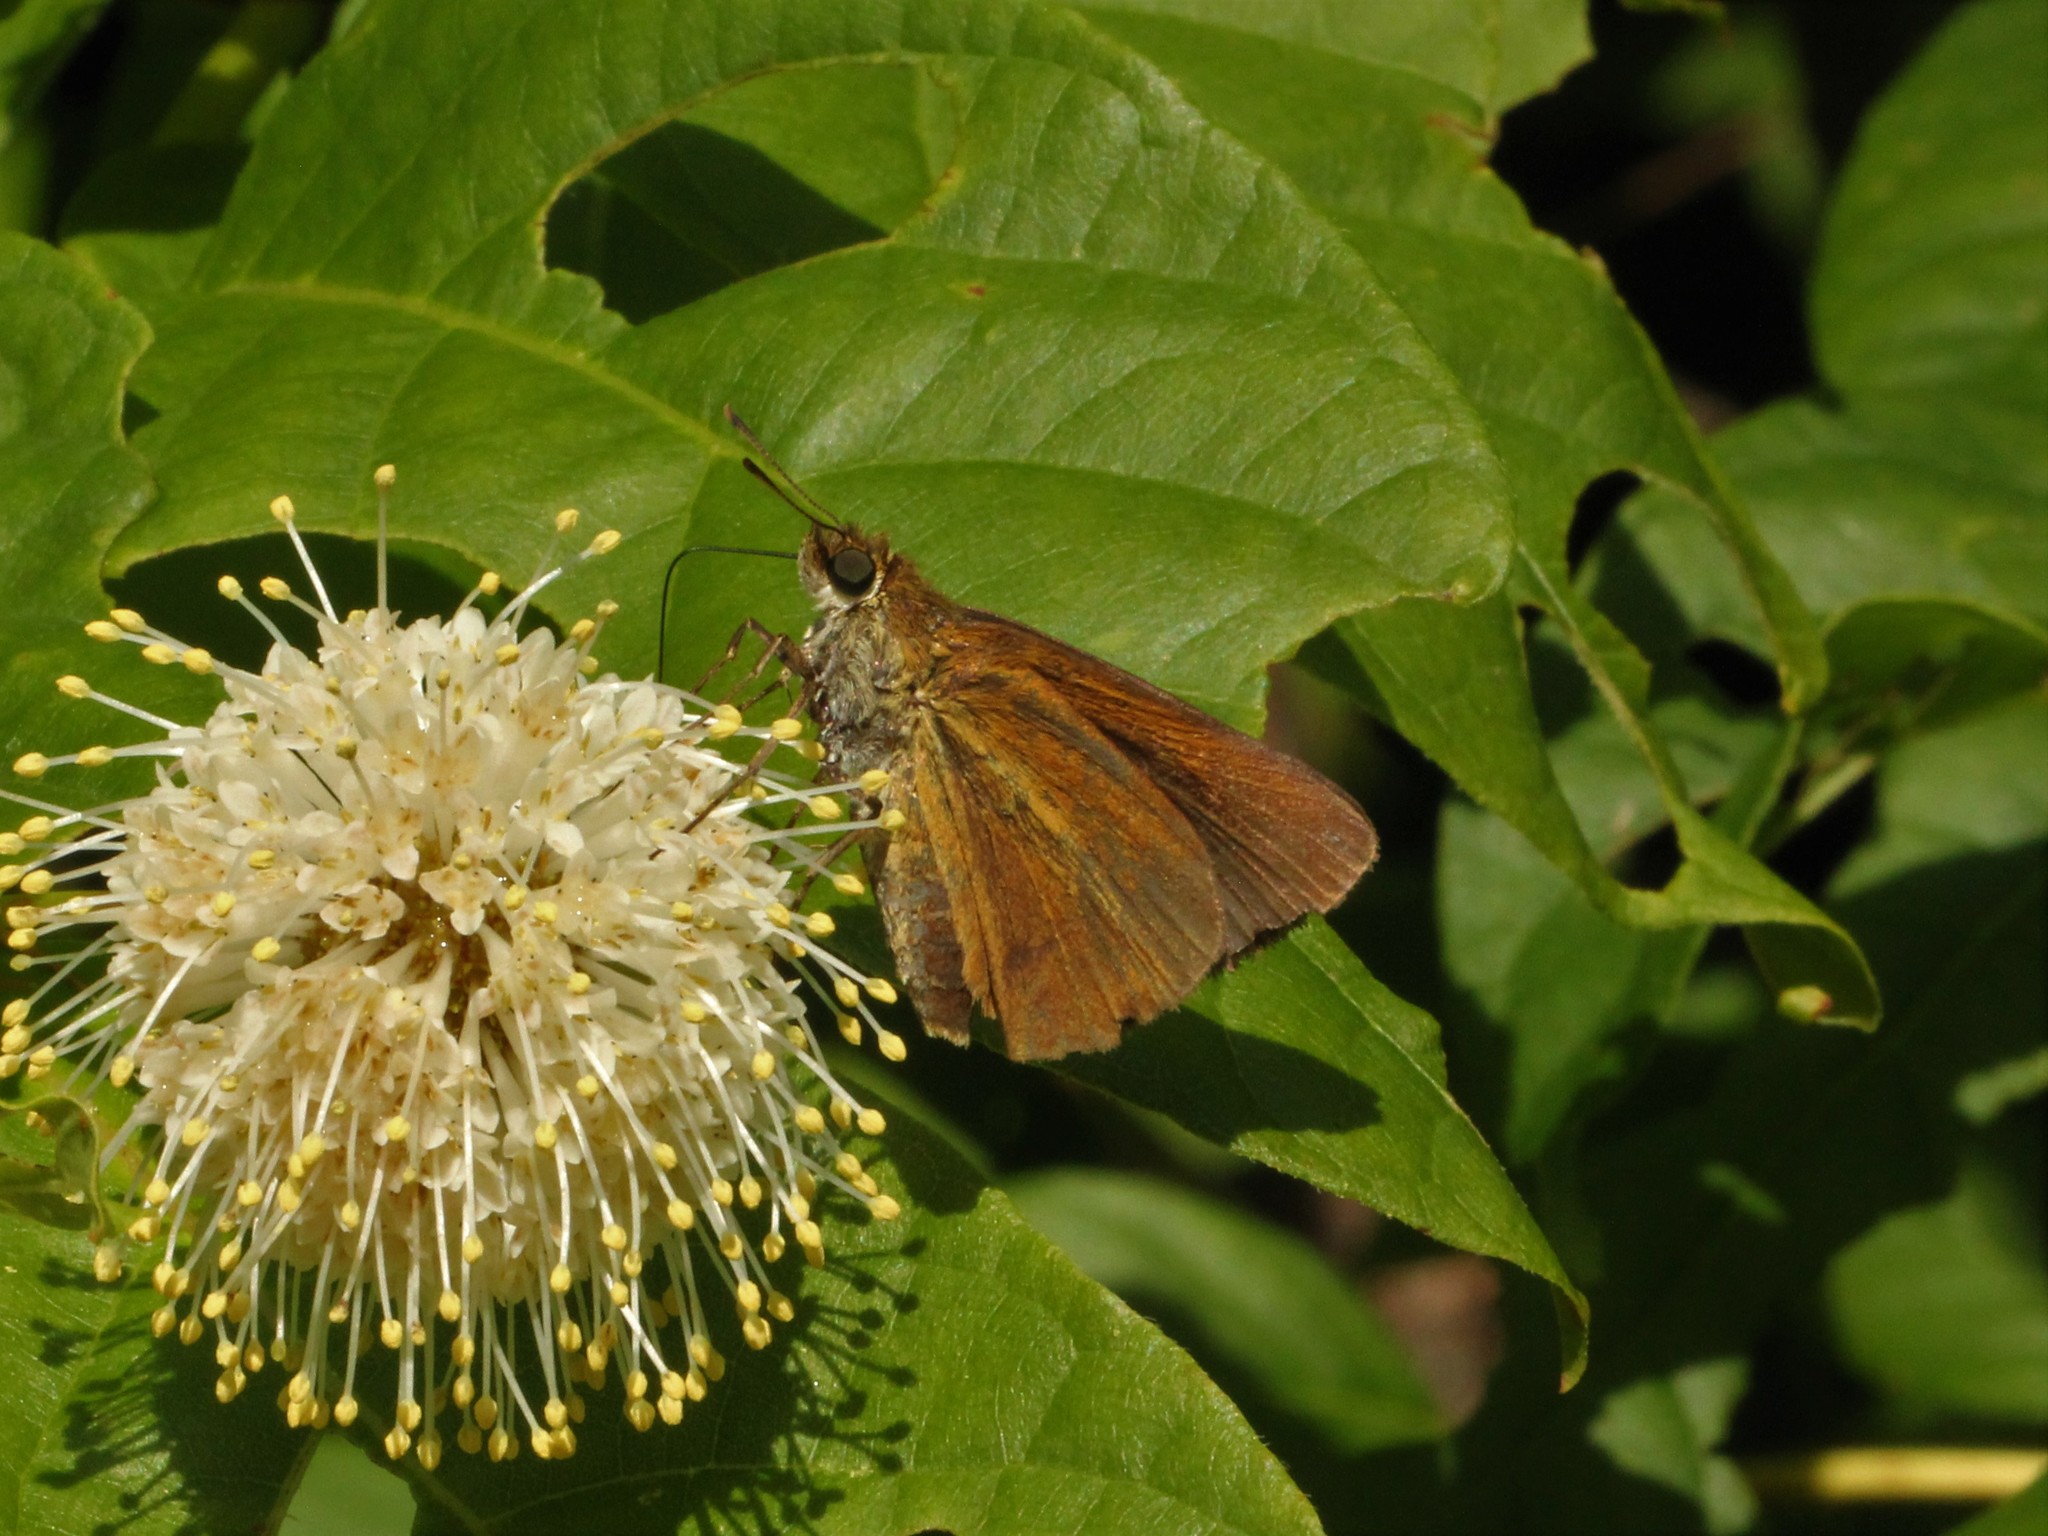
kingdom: Animalia
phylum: Arthropoda
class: Insecta
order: Lepidoptera
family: Hesperiidae
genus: Euphyes
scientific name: Euphyes dukesi
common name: Dukes' skipper
